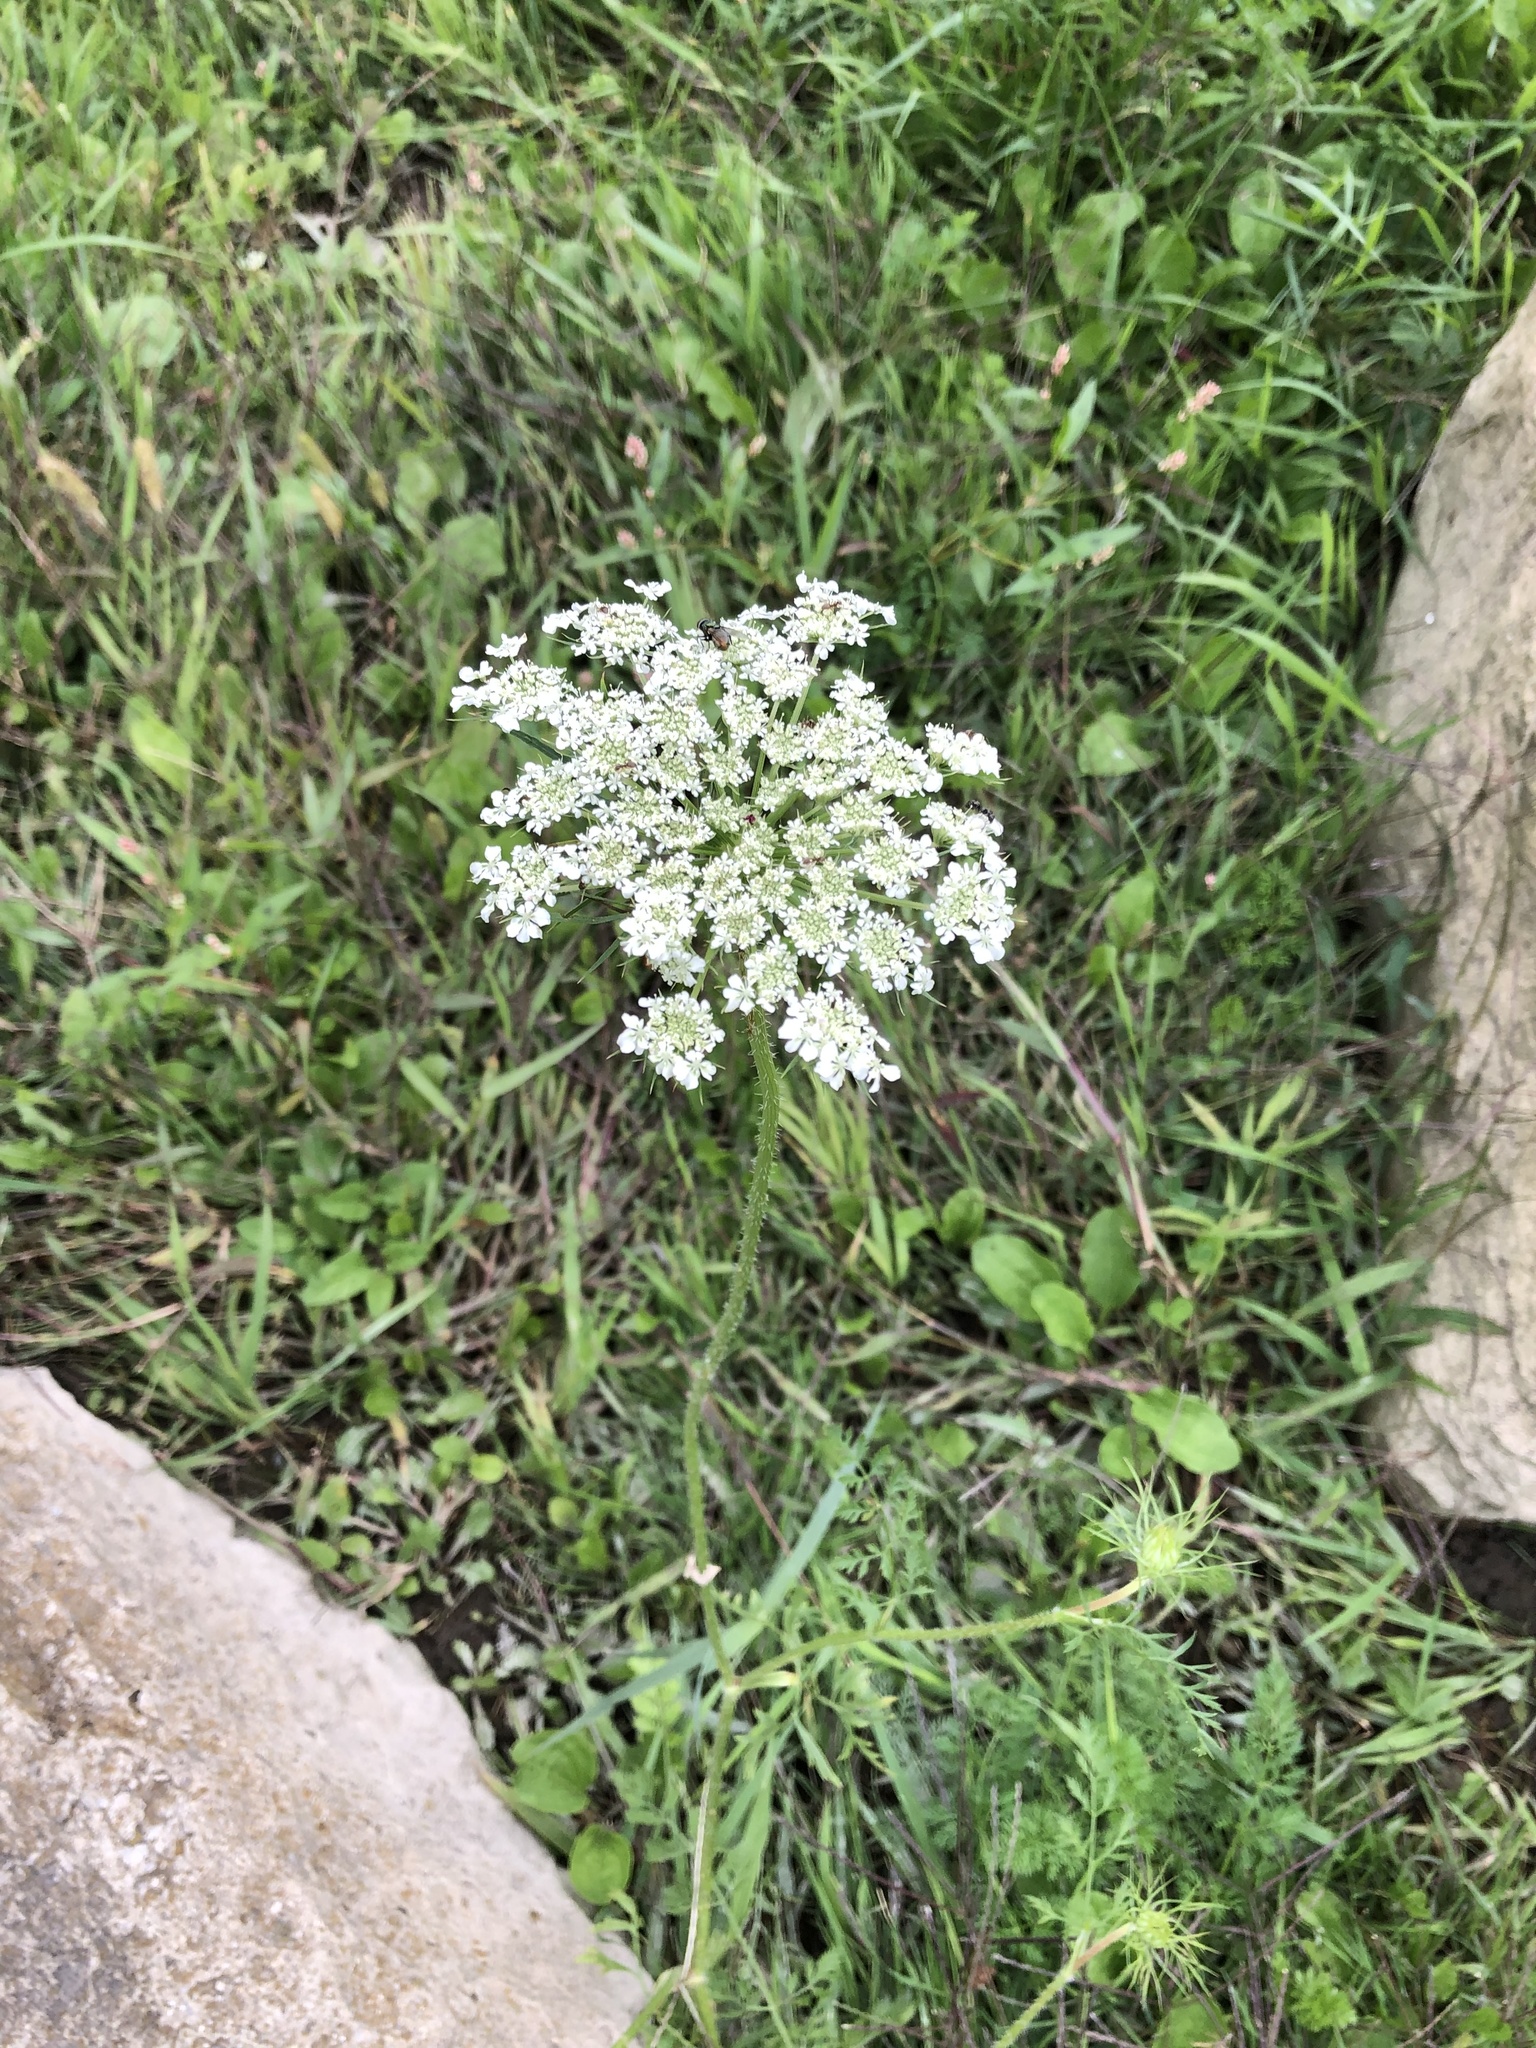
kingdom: Plantae
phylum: Tracheophyta
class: Magnoliopsida
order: Apiales
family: Apiaceae
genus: Daucus
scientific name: Daucus carota
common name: Wild carrot
